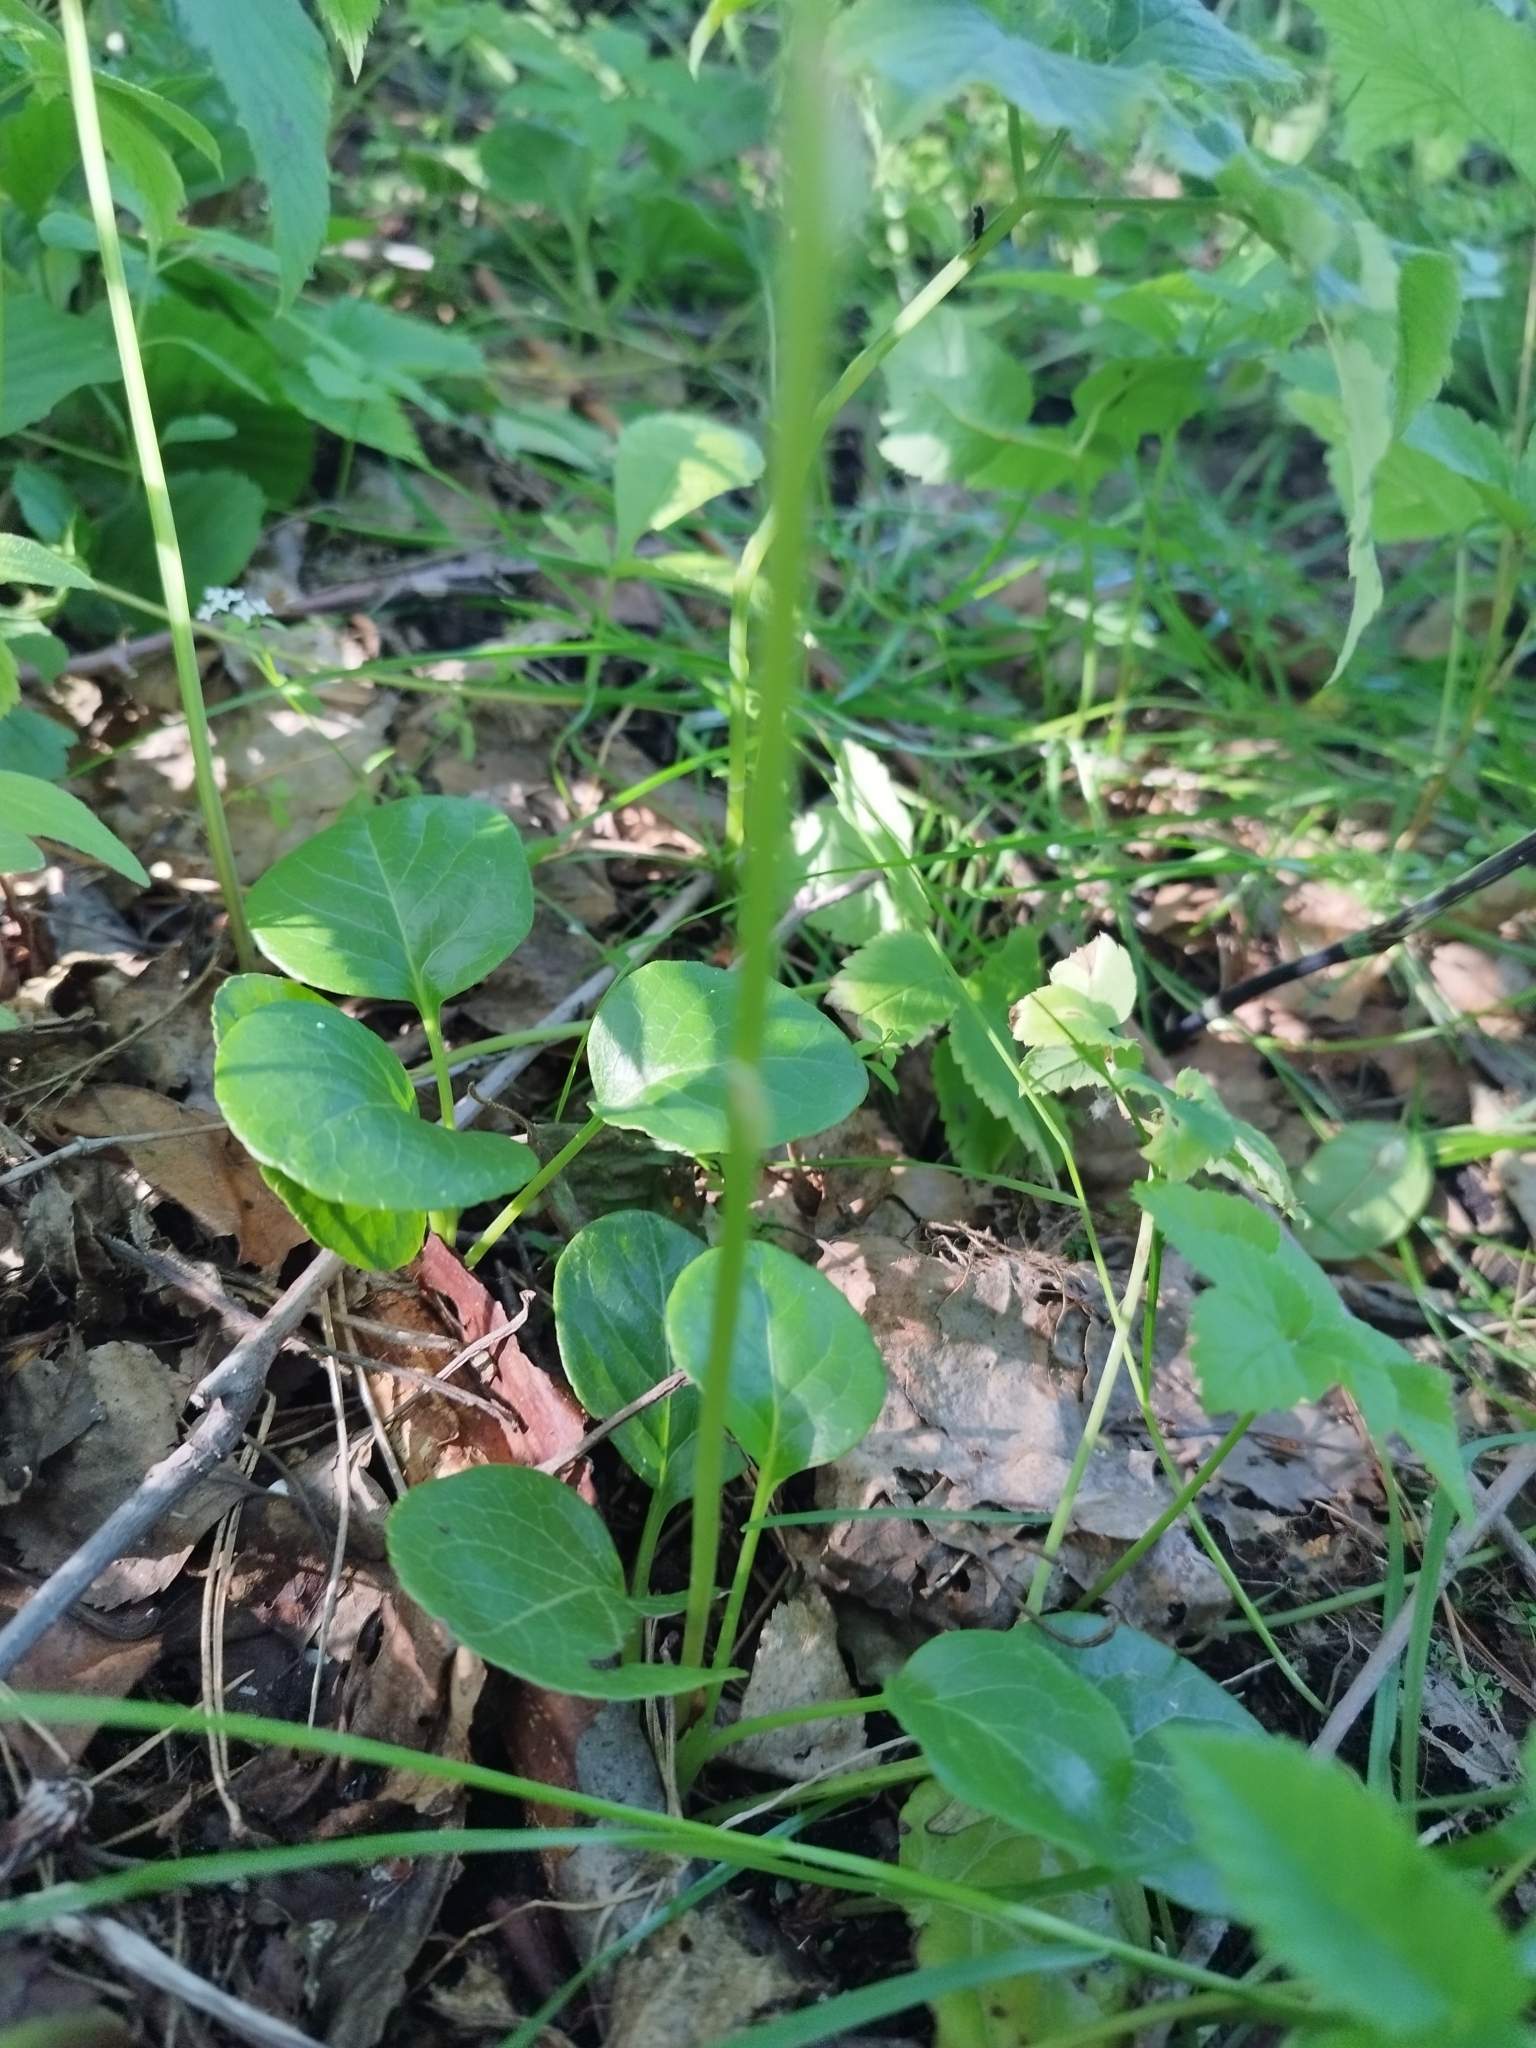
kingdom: Plantae
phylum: Tracheophyta
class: Magnoliopsida
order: Ericales
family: Ericaceae
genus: Pyrola
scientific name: Pyrola rotundifolia
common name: Round-leaved wintergreen
